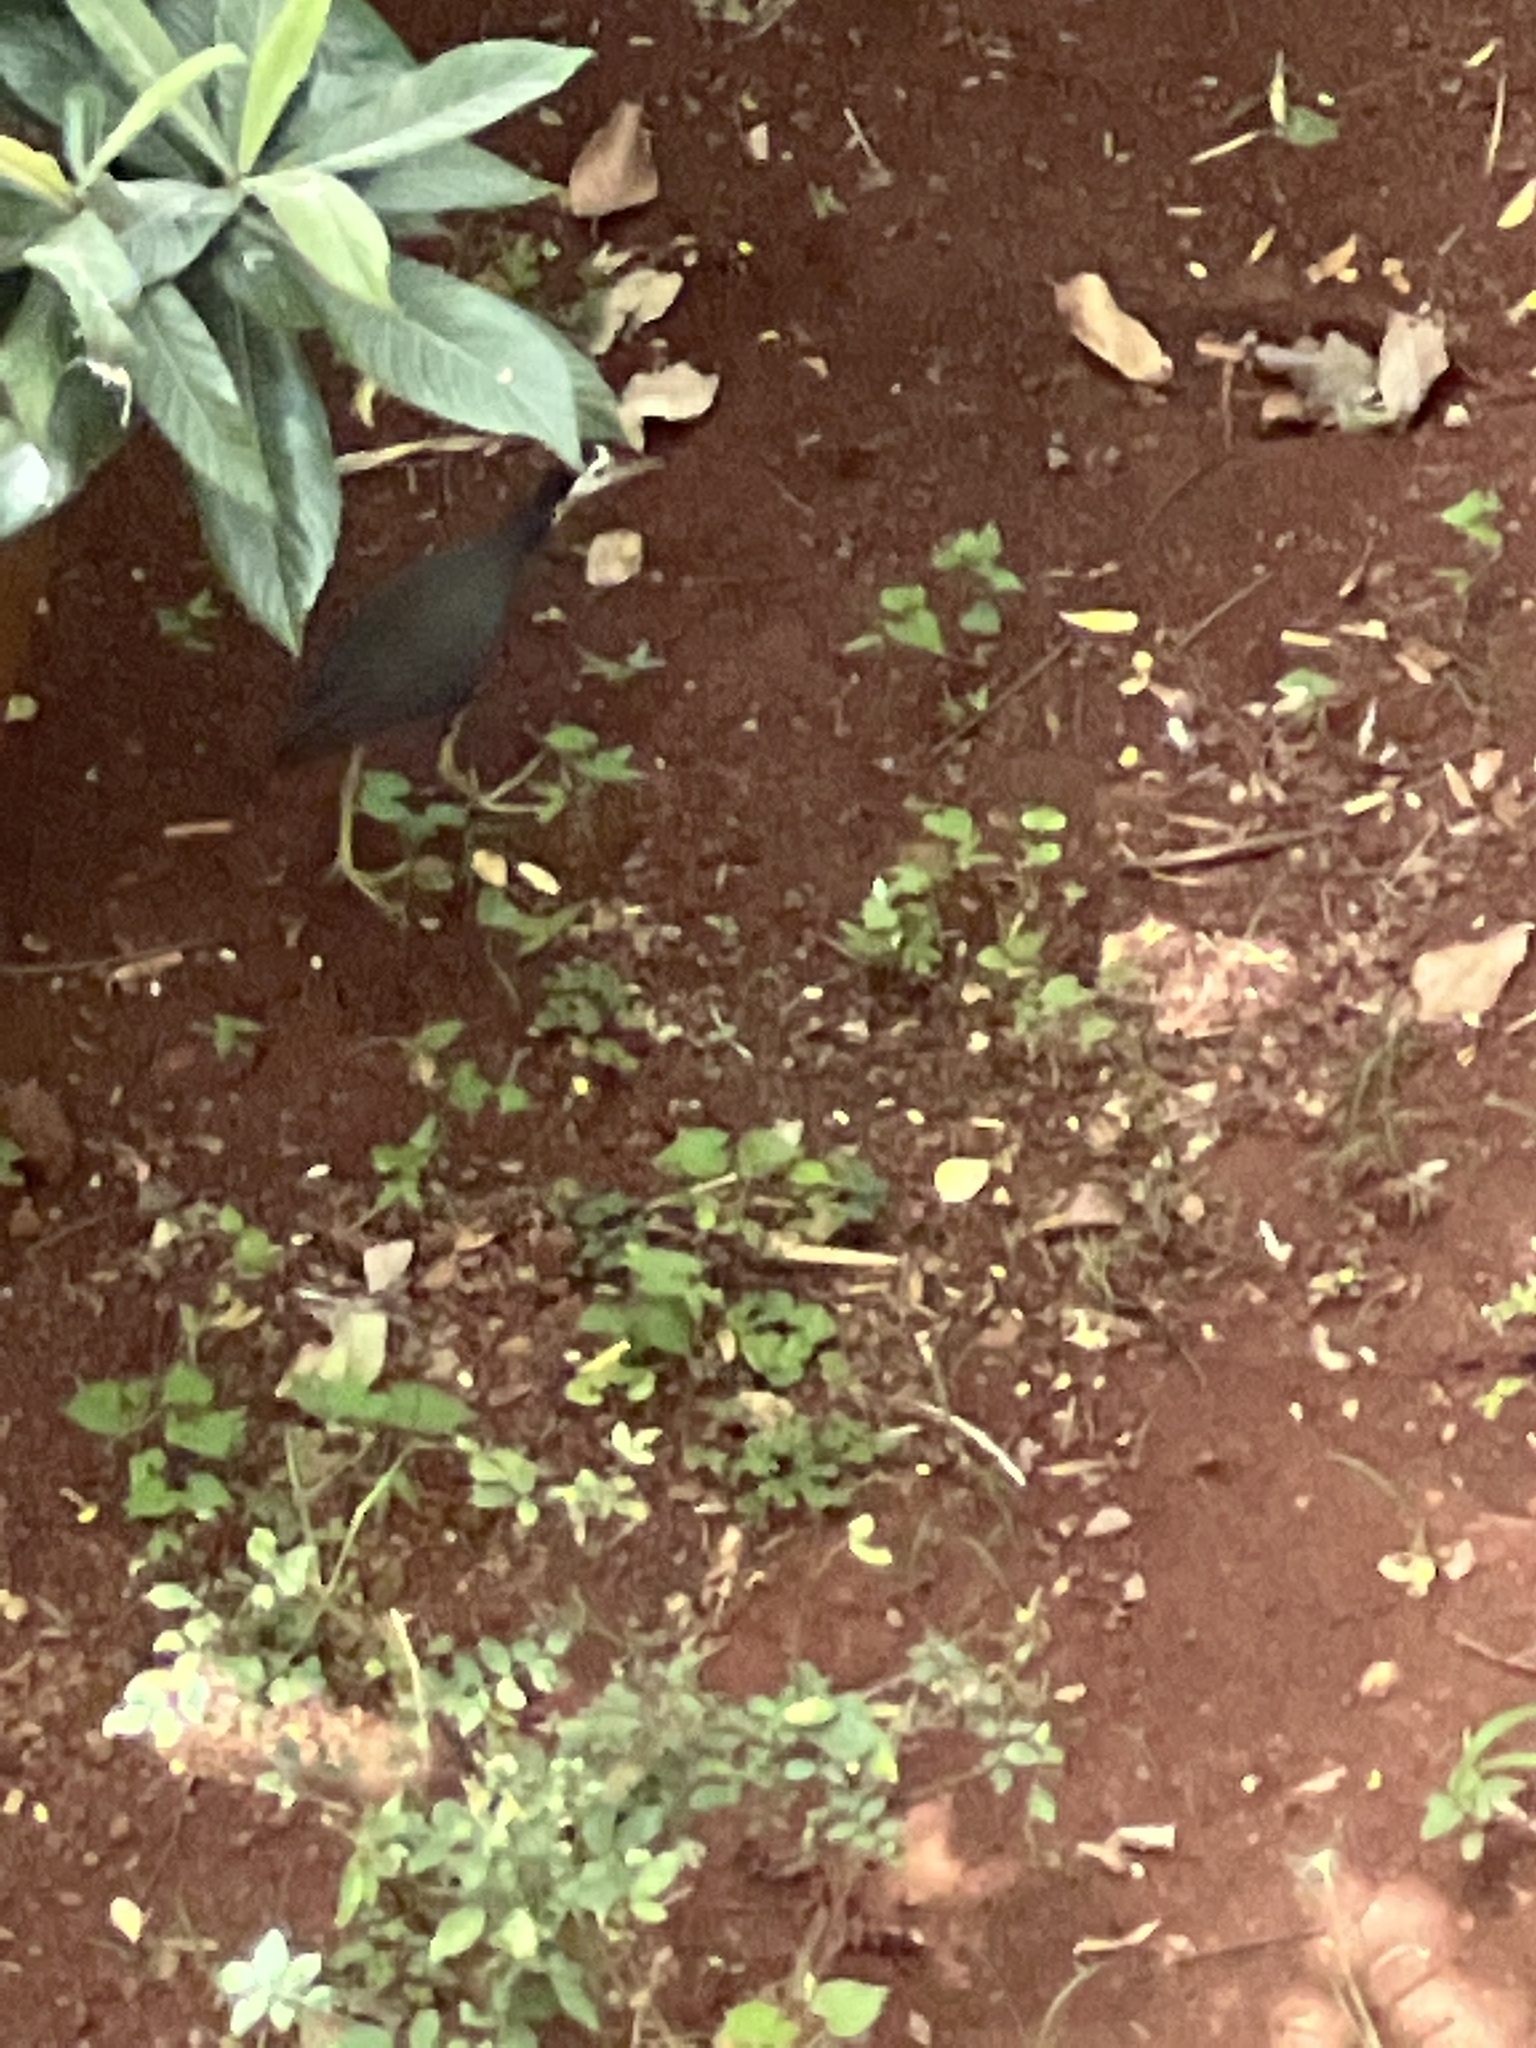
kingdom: Animalia
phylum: Chordata
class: Aves
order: Gruiformes
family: Rallidae
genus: Amaurornis
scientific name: Amaurornis phoenicurus
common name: White-breasted waterhen
